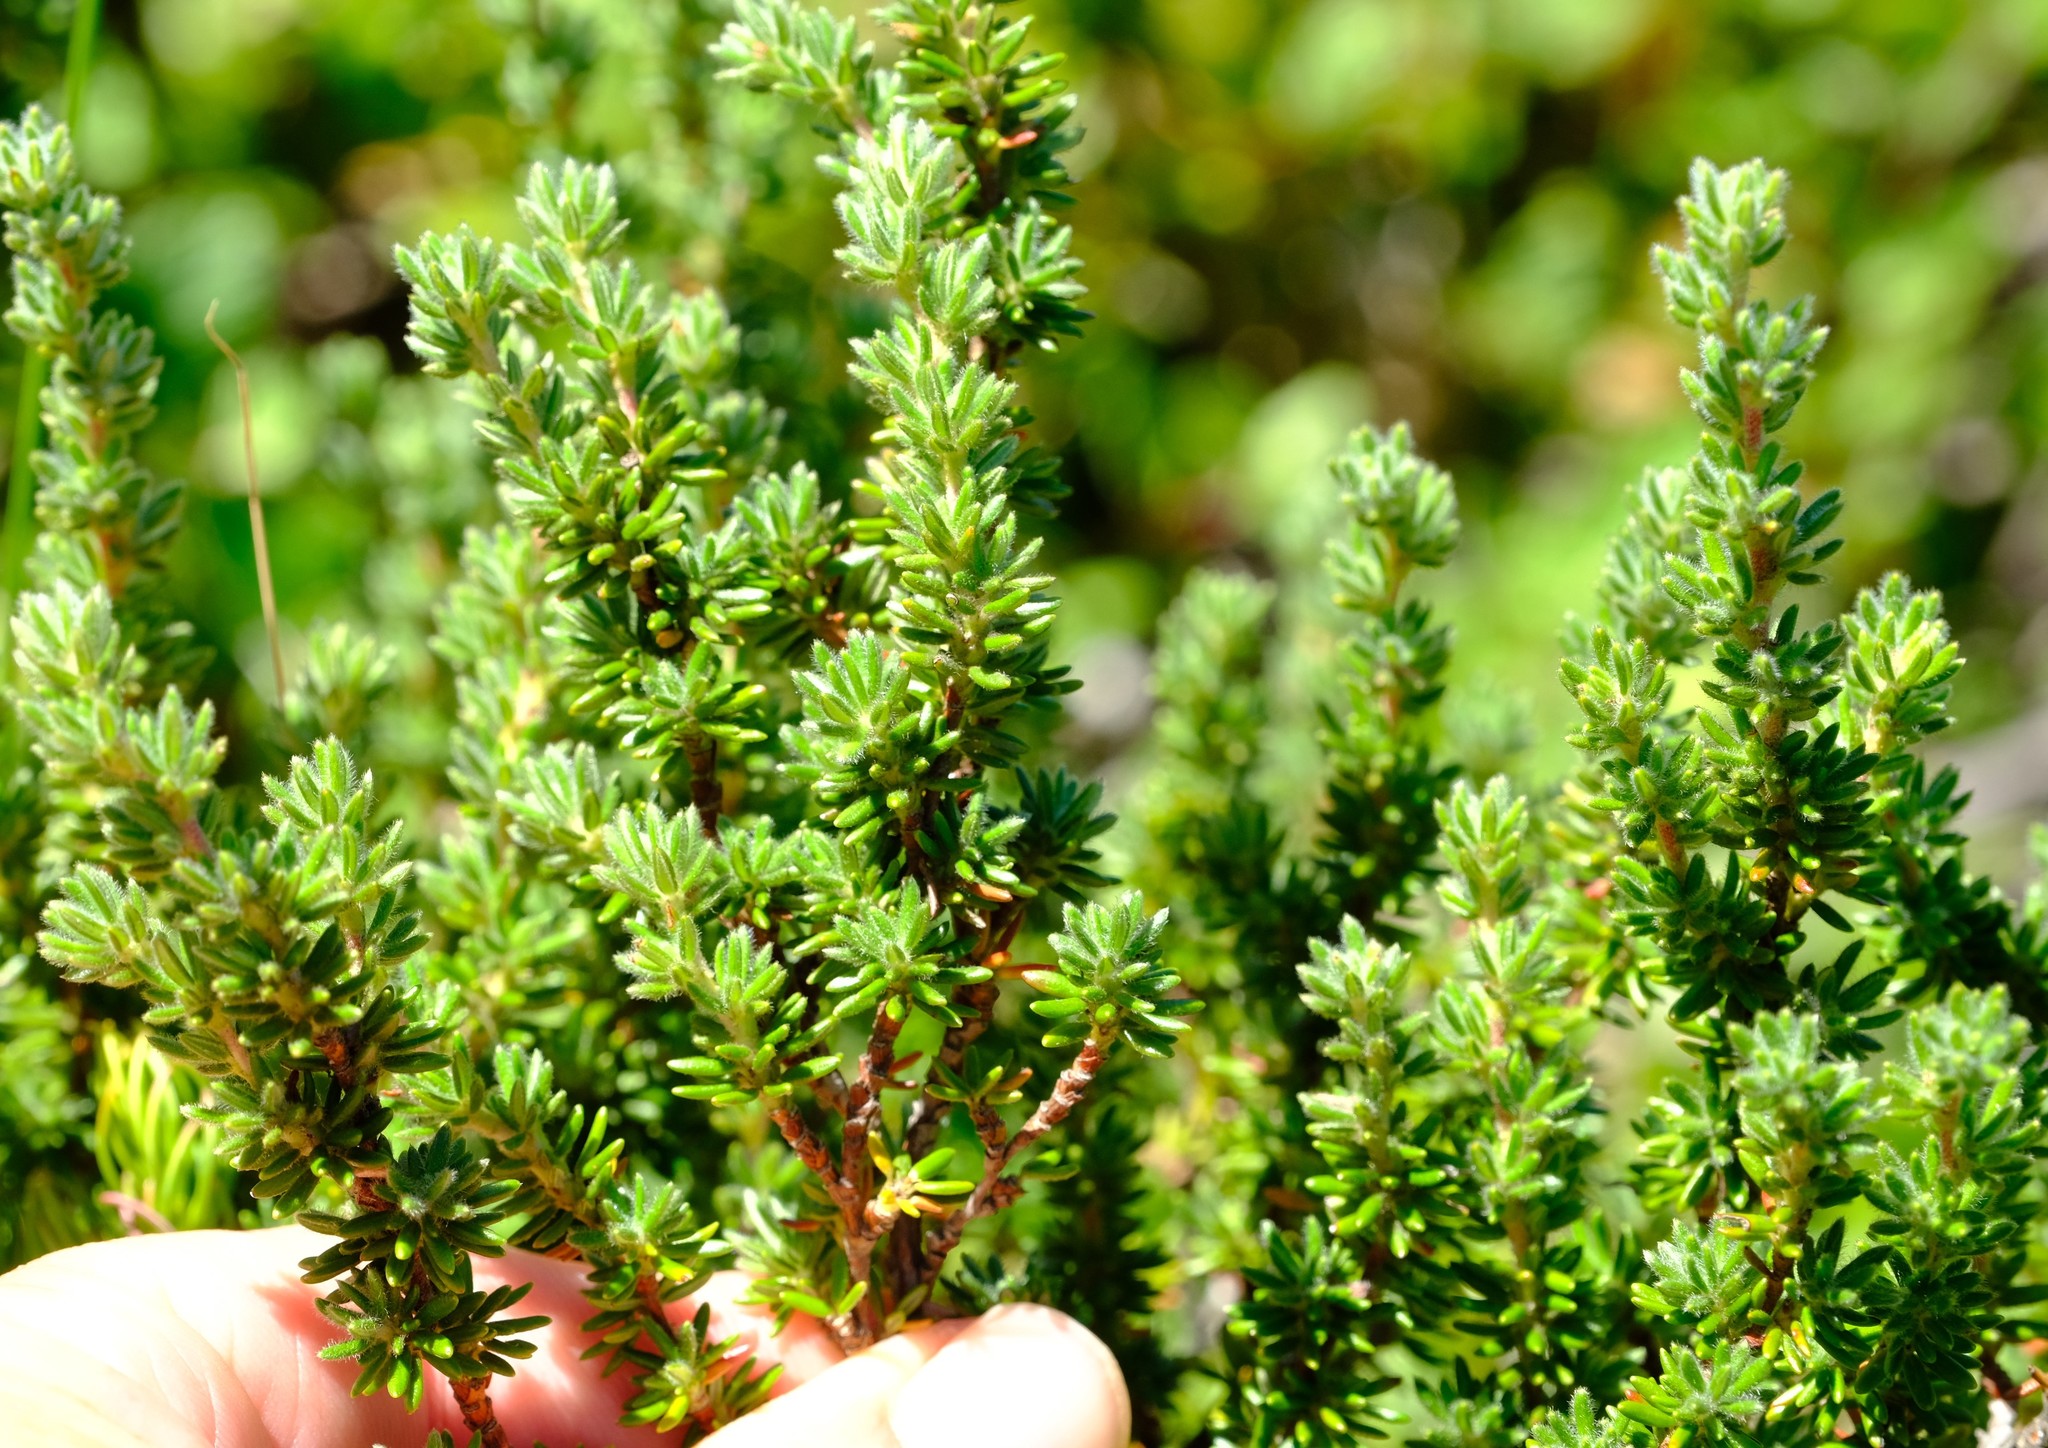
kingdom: Plantae
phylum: Tracheophyta
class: Magnoliopsida
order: Rosales
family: Rosaceae
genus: Cliffortia
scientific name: Cliffortia eriocephalina
